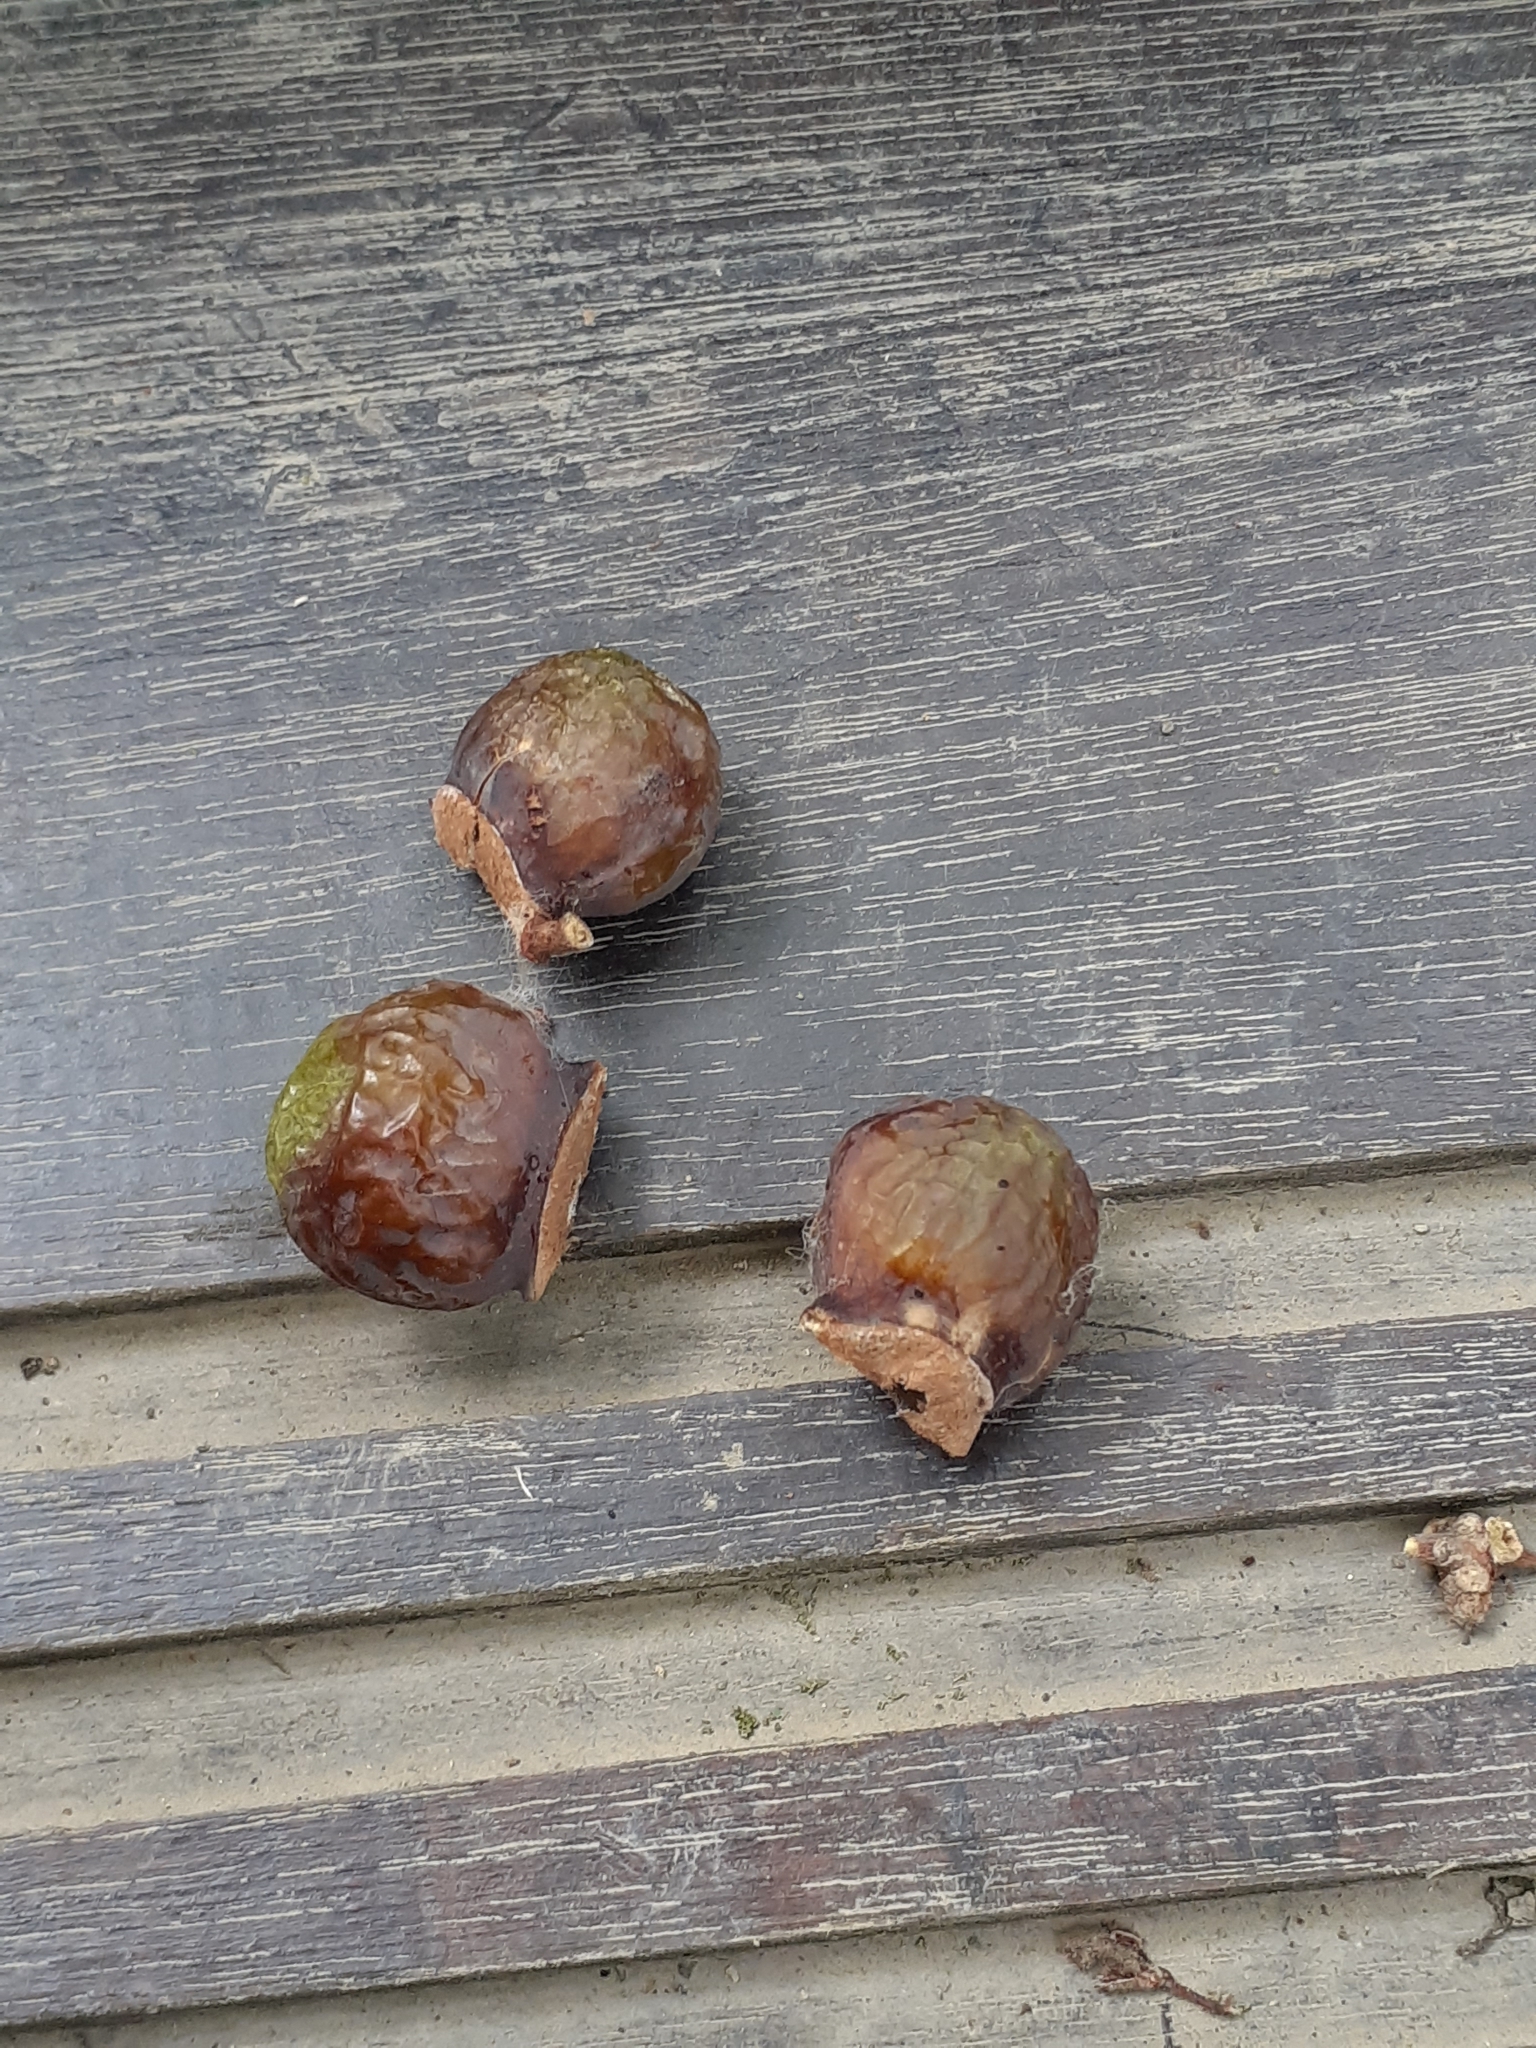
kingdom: Plantae
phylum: Tracheophyta
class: Magnoliopsida
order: Sapindales
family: Sapindaceae
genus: Sapindus
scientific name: Sapindus mukorossi
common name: Chinese soapberry
